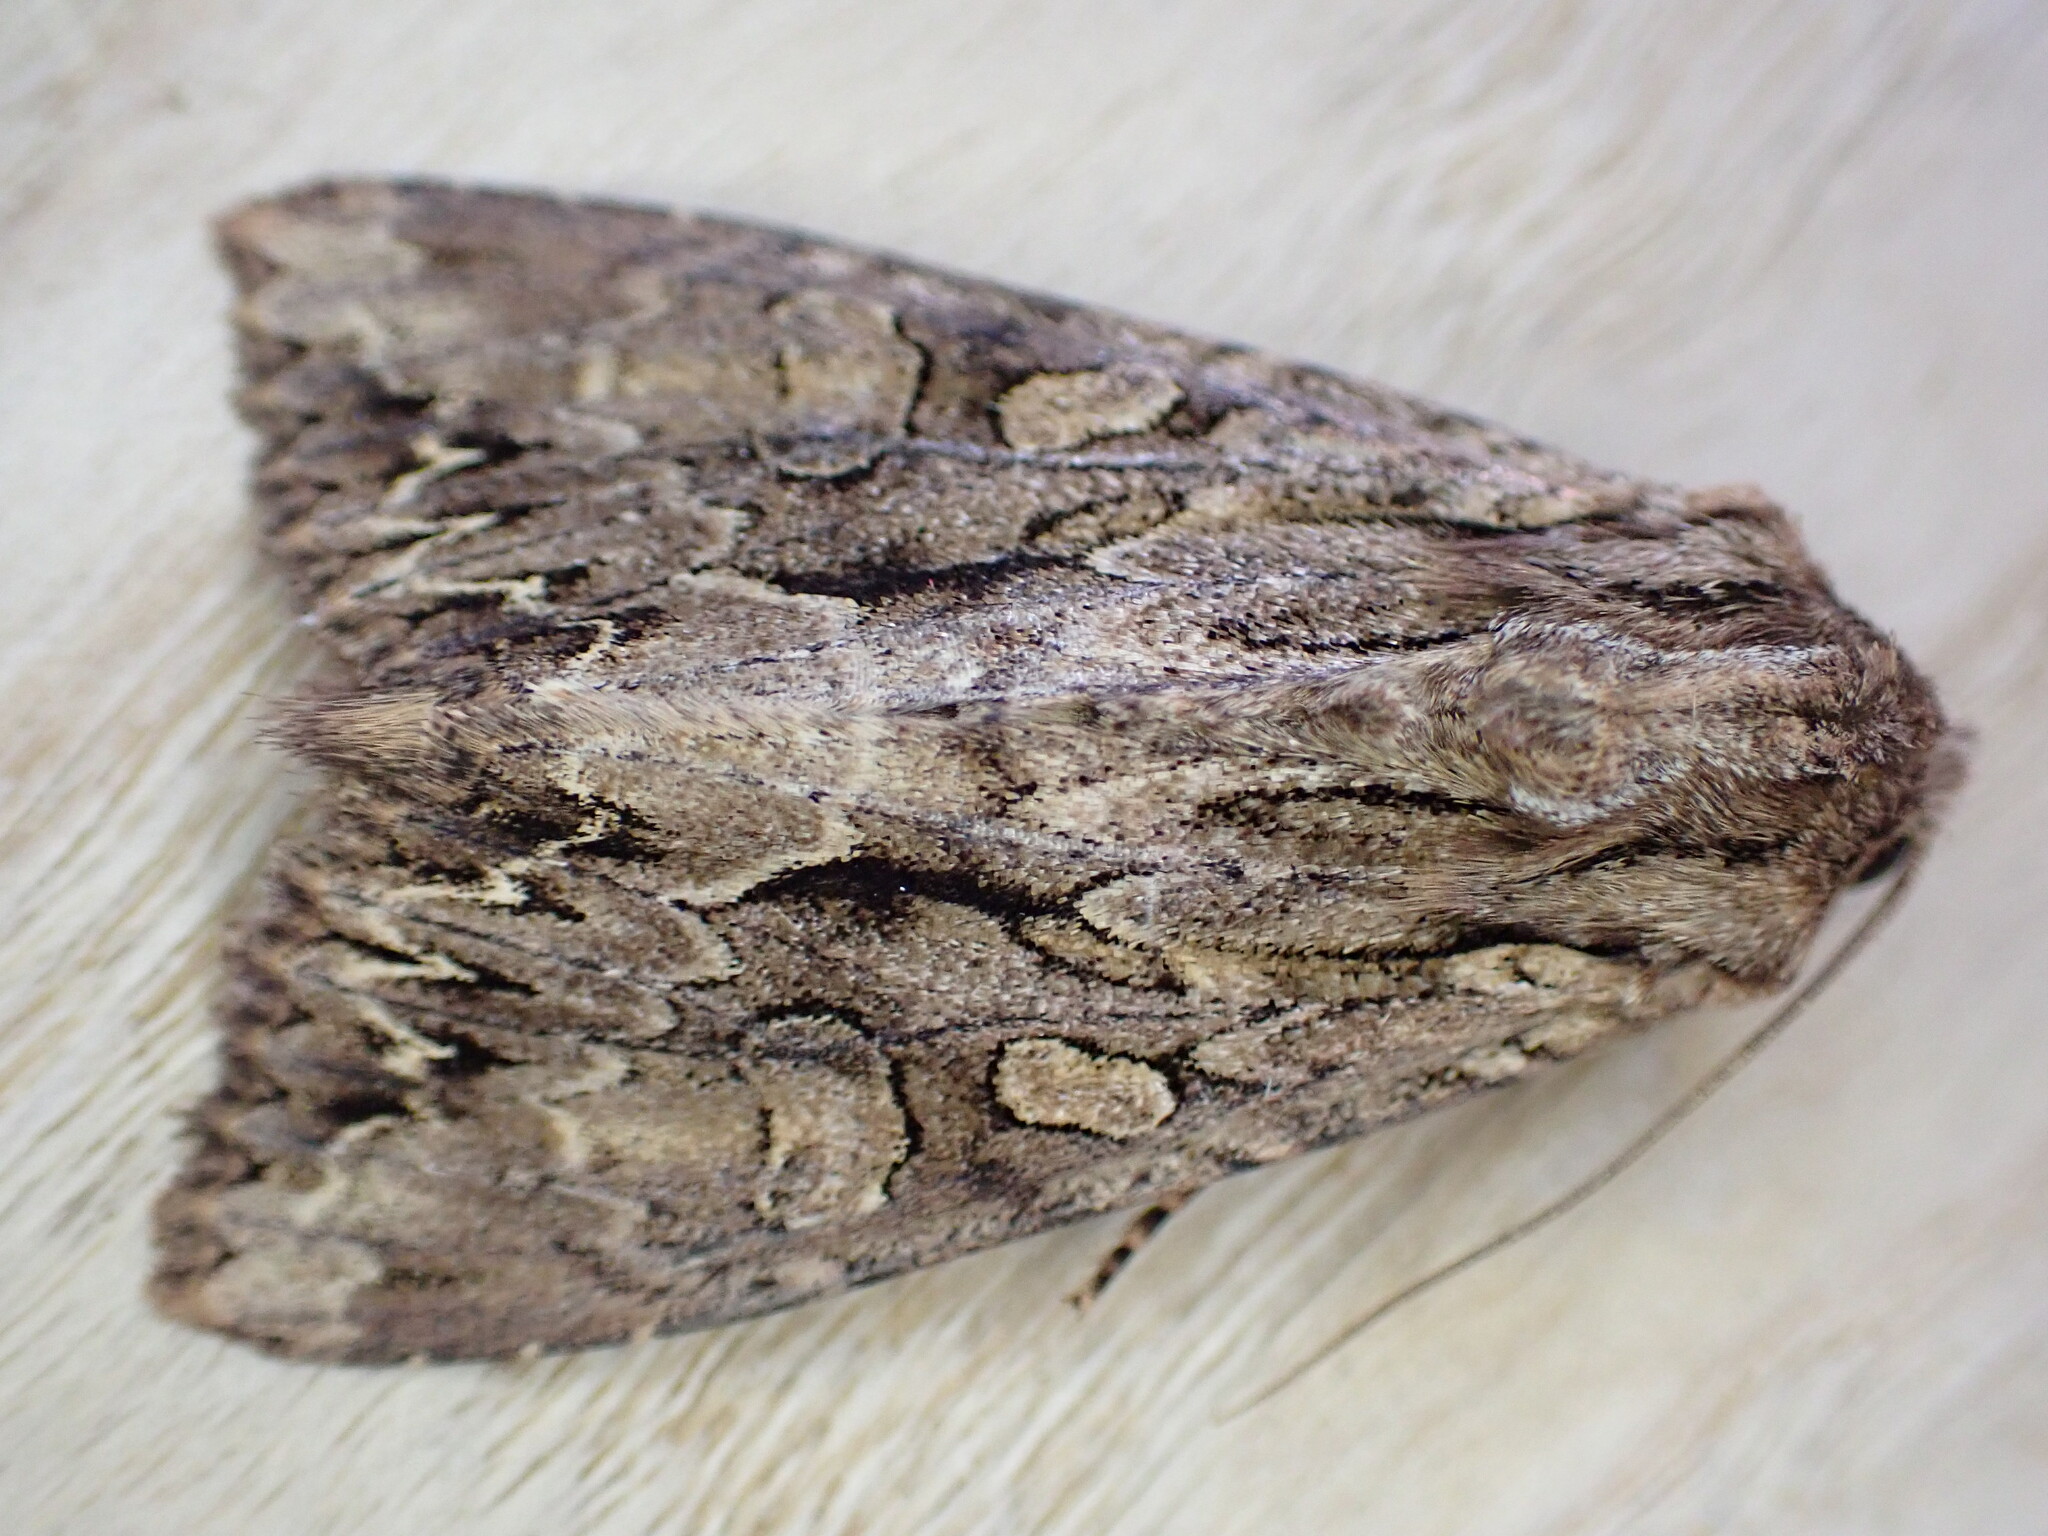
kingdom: Animalia
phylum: Arthropoda
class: Insecta
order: Lepidoptera
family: Noctuidae
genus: Apamea
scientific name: Apamea monoglypha
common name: Dark arches
